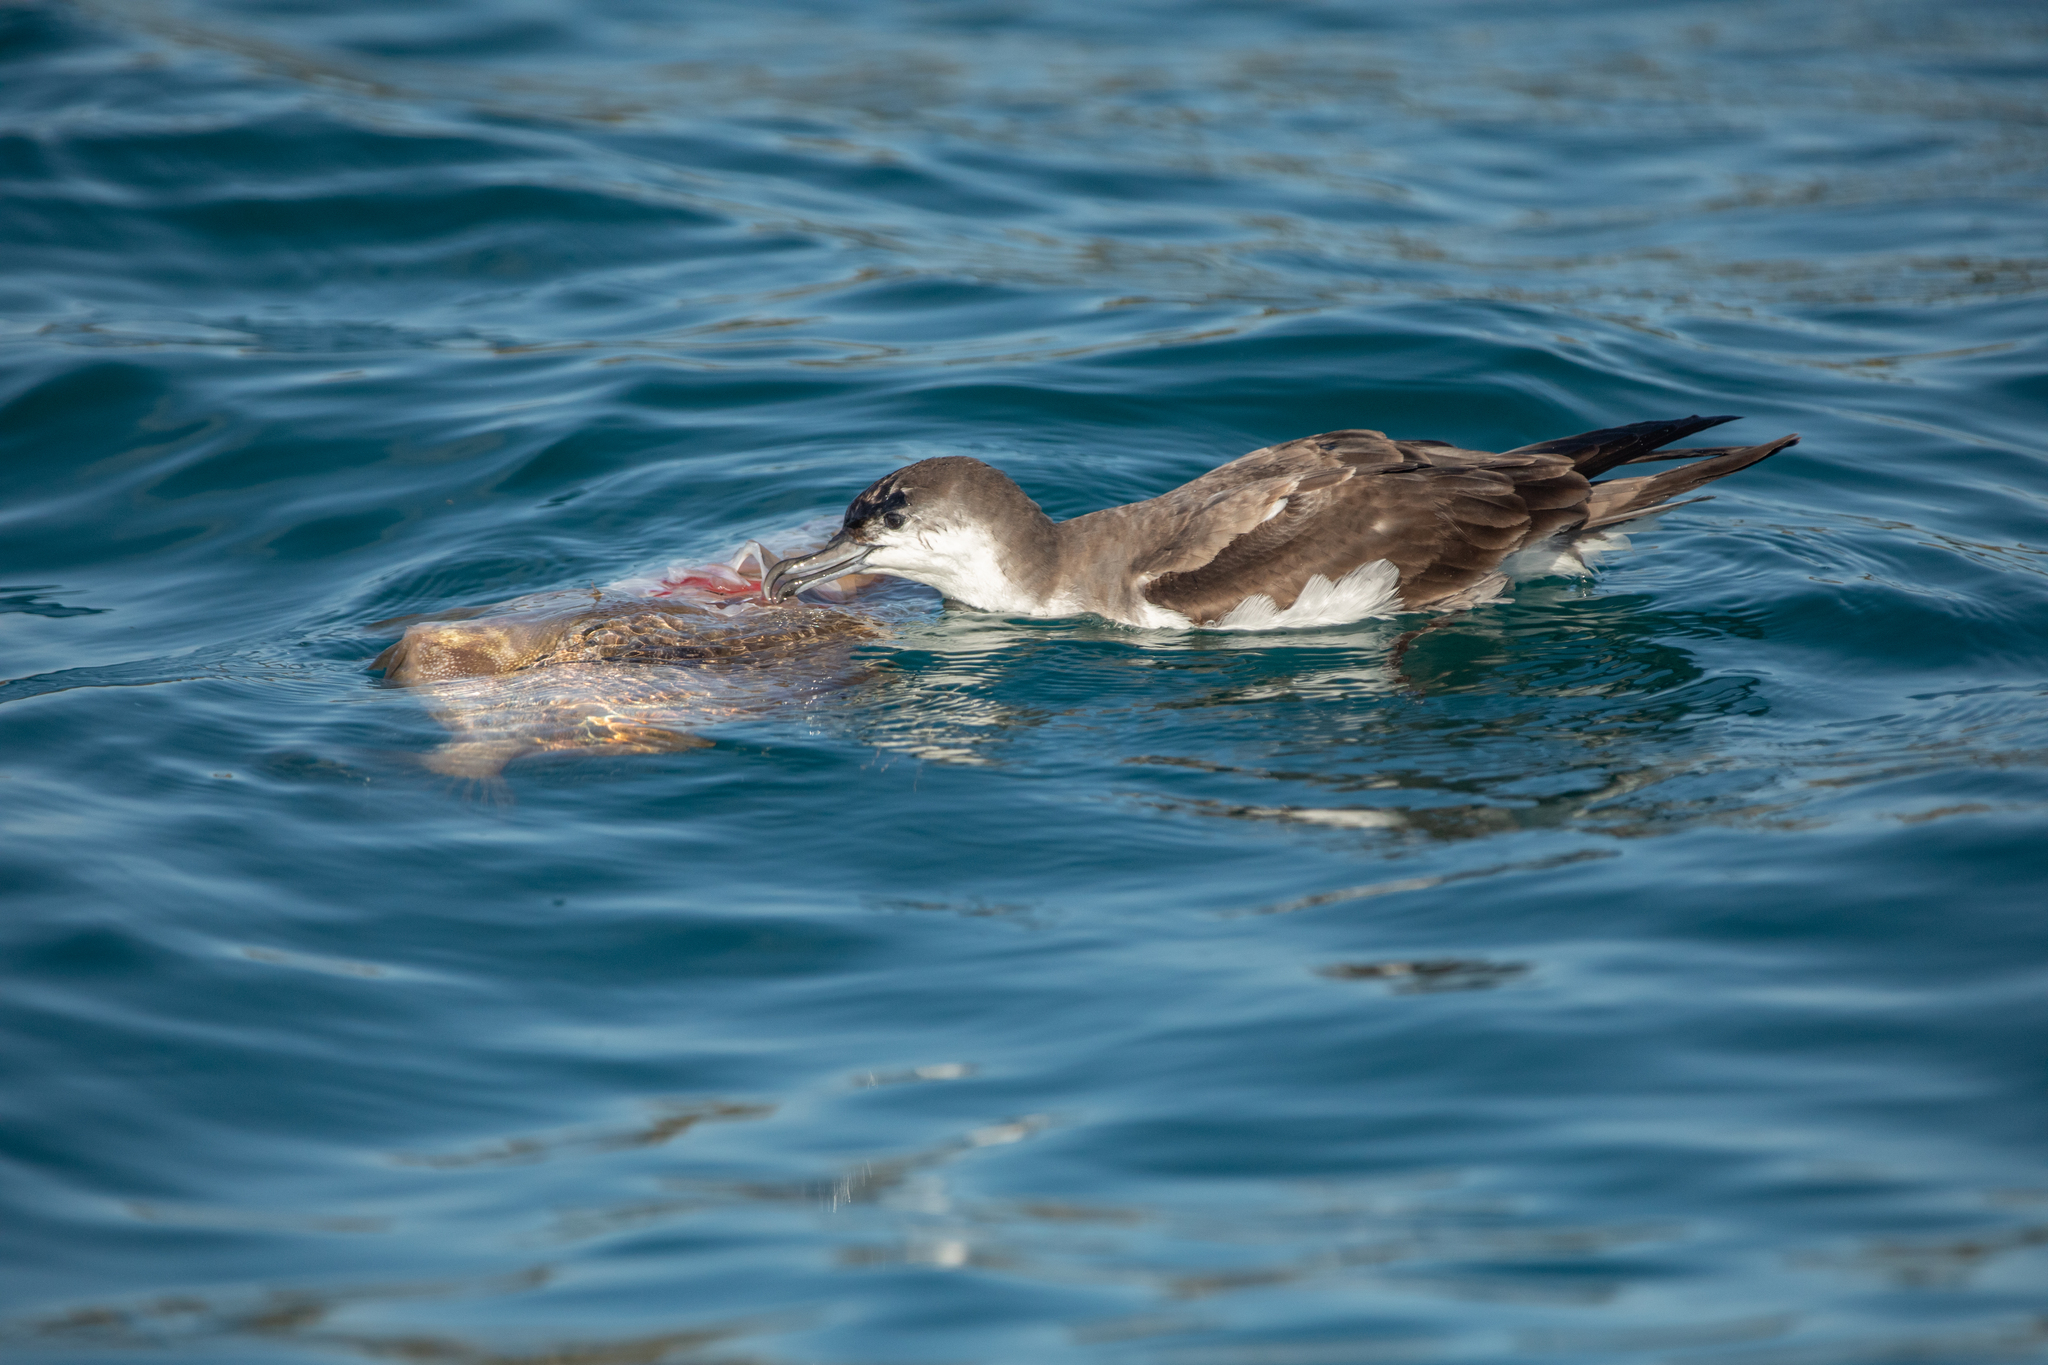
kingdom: Animalia
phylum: Chordata
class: Aves
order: Procellariiformes
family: Procellariidae
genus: Puffinus
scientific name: Puffinus bulleri
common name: Buller's shearwater
